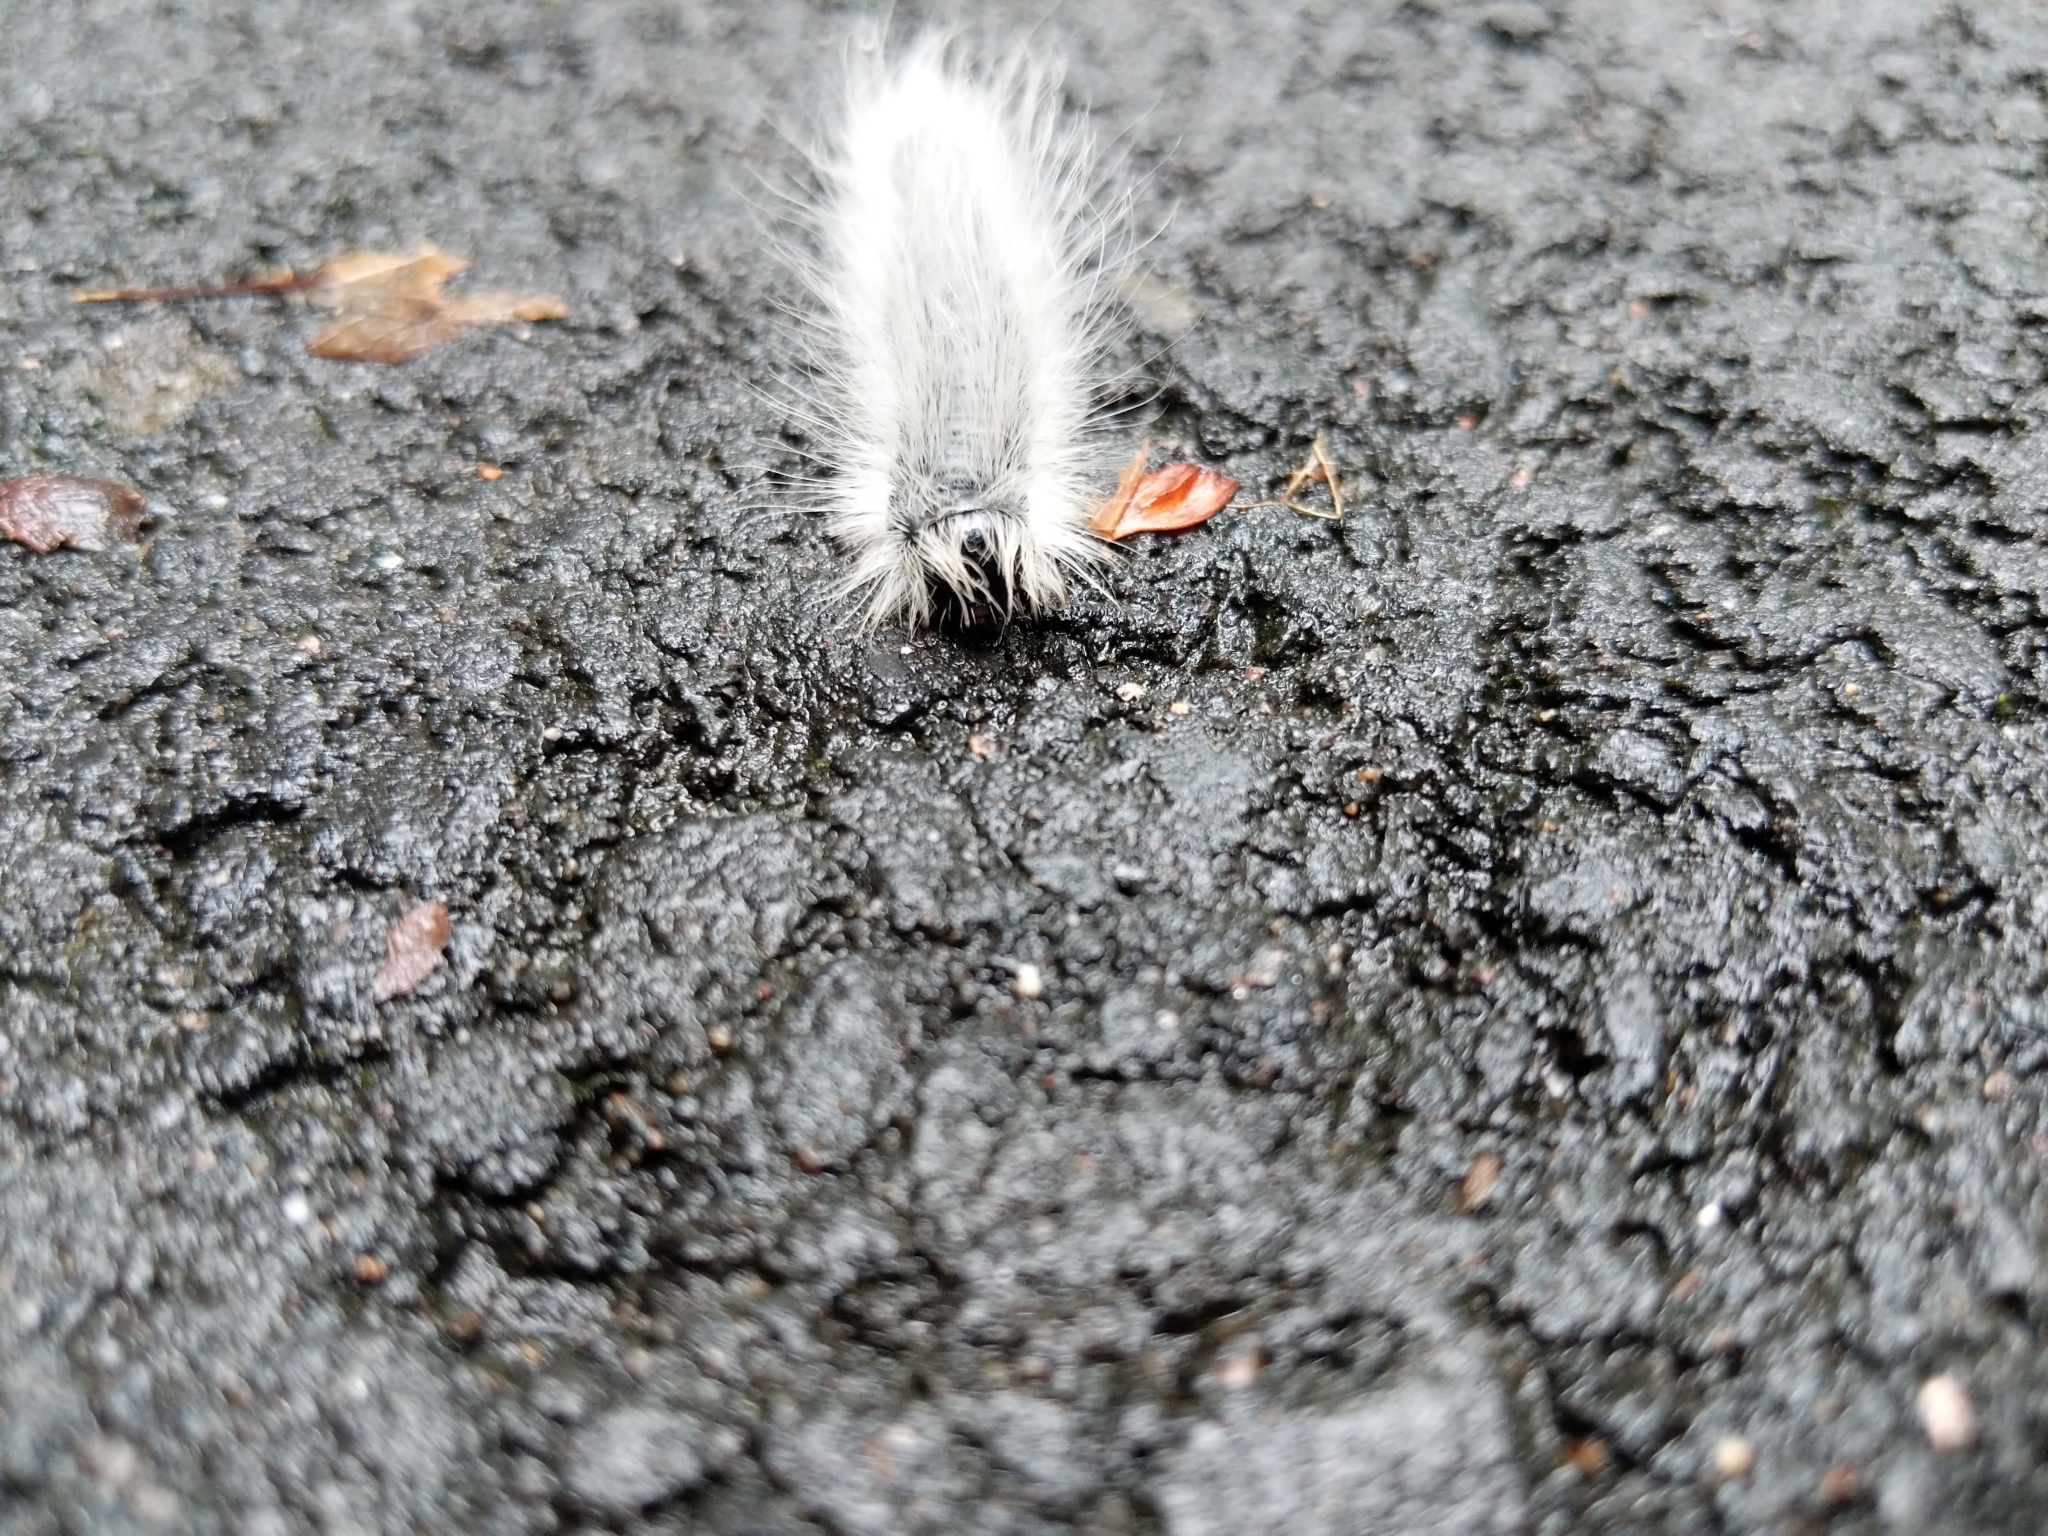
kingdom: Animalia
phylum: Arthropoda
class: Insecta
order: Lepidoptera
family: Notodontidae
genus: Datana
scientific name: Datana integerrima
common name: Walnut caterpillar
